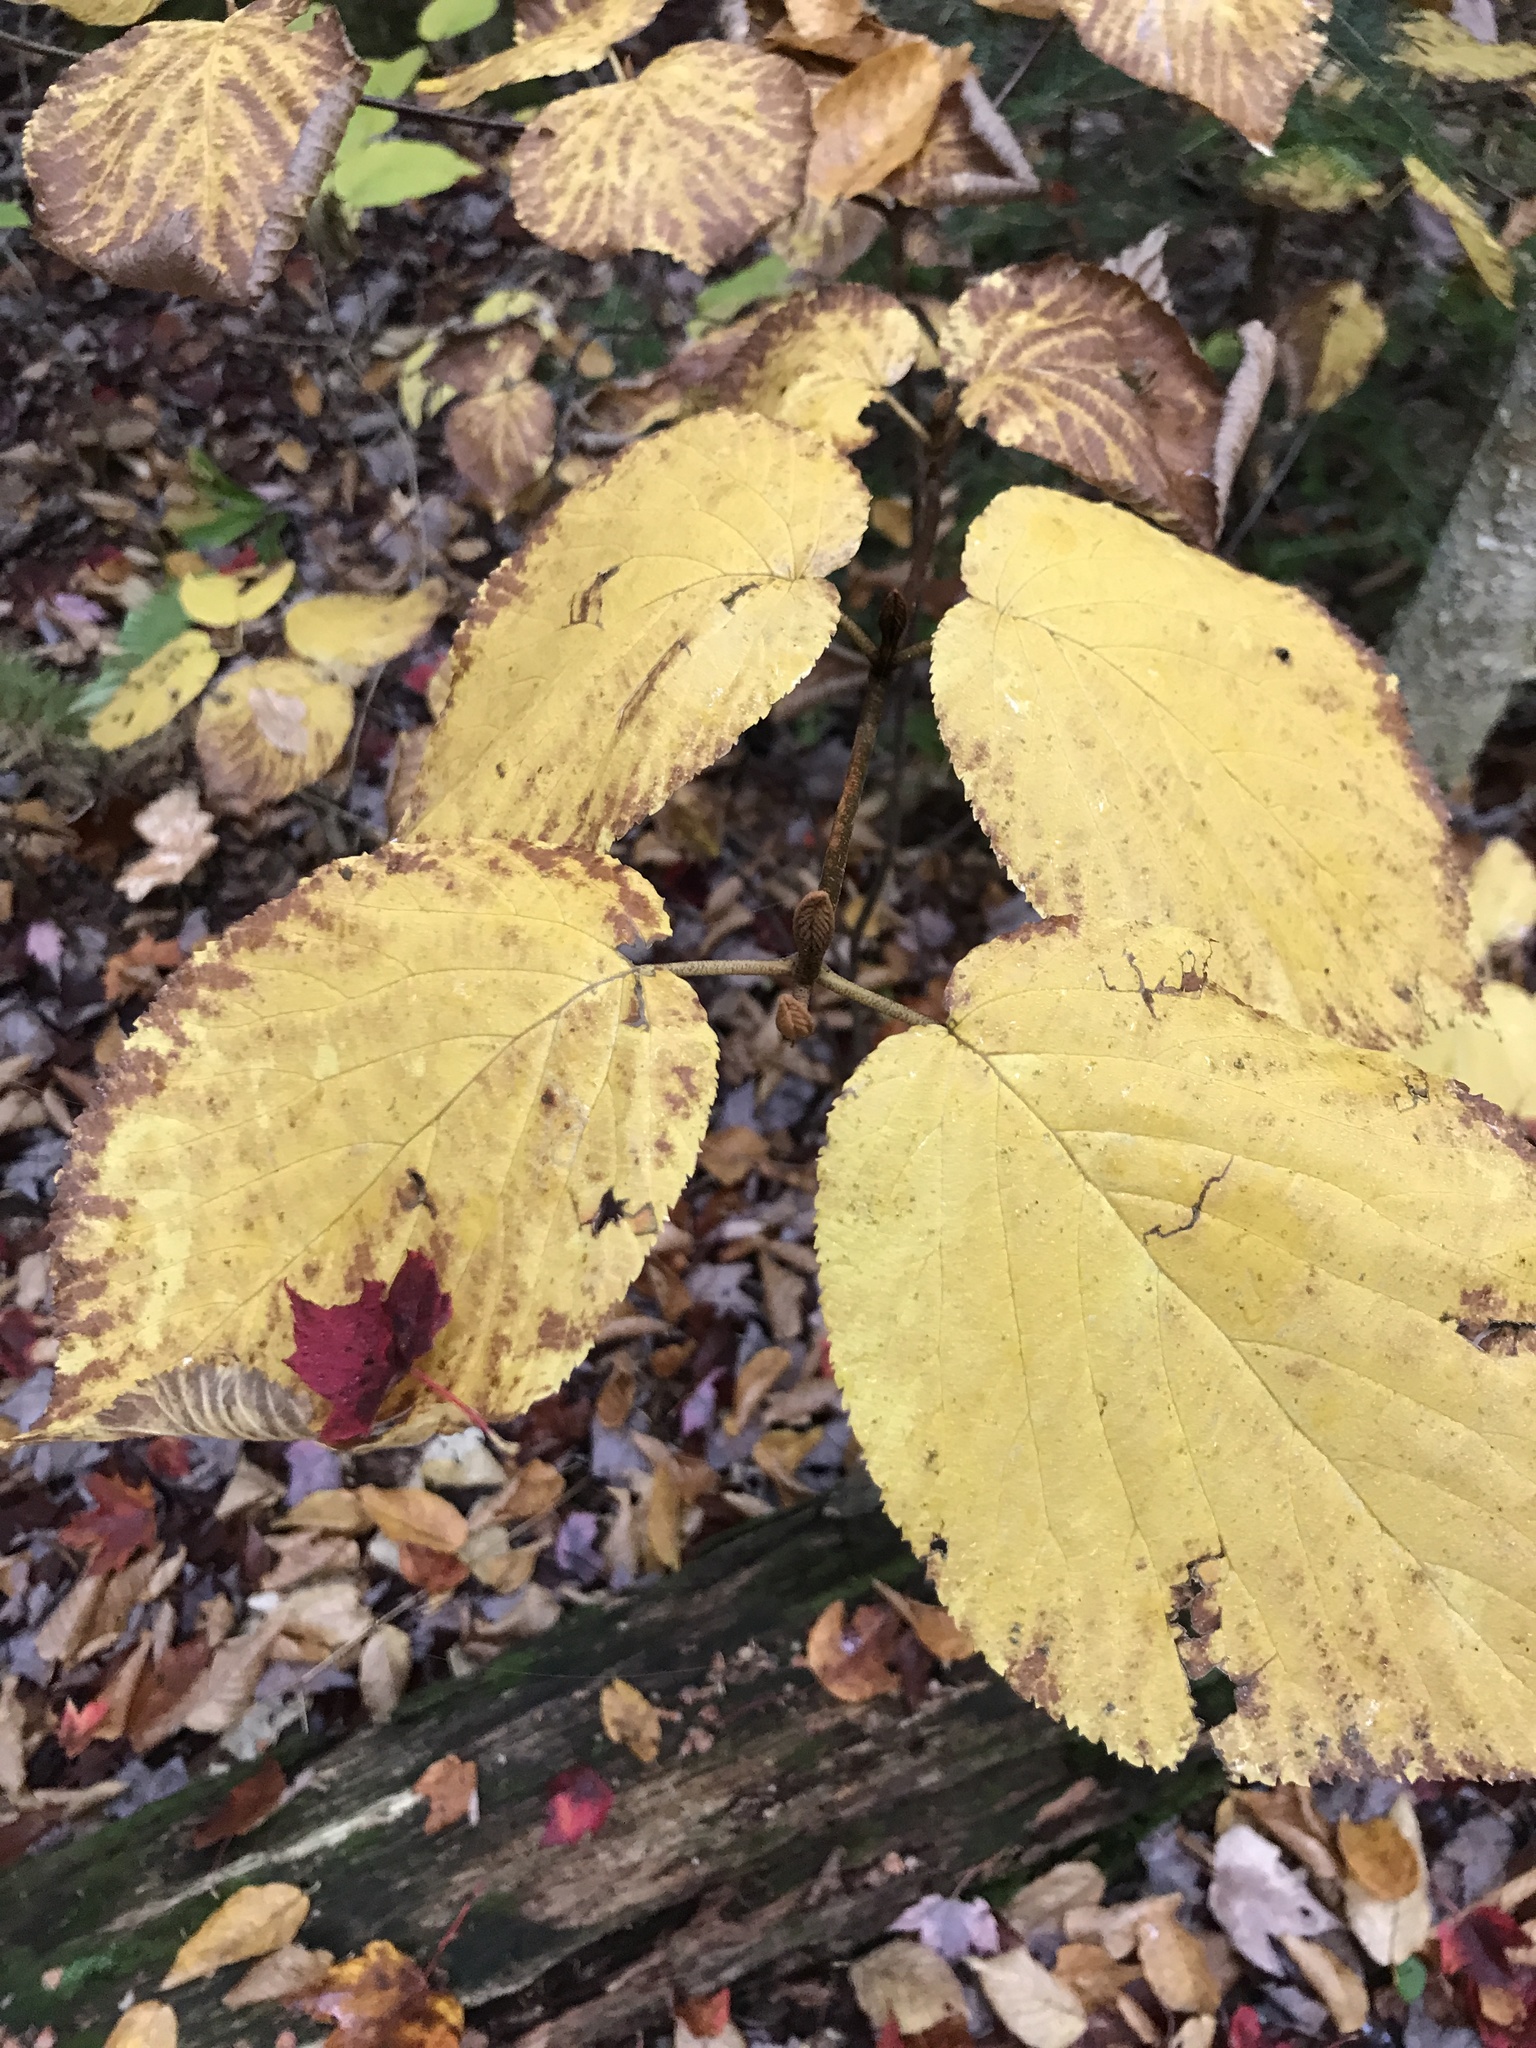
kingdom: Plantae
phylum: Tracheophyta
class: Magnoliopsida
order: Dipsacales
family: Viburnaceae
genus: Viburnum
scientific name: Viburnum lantanoides
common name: Hobblebush
